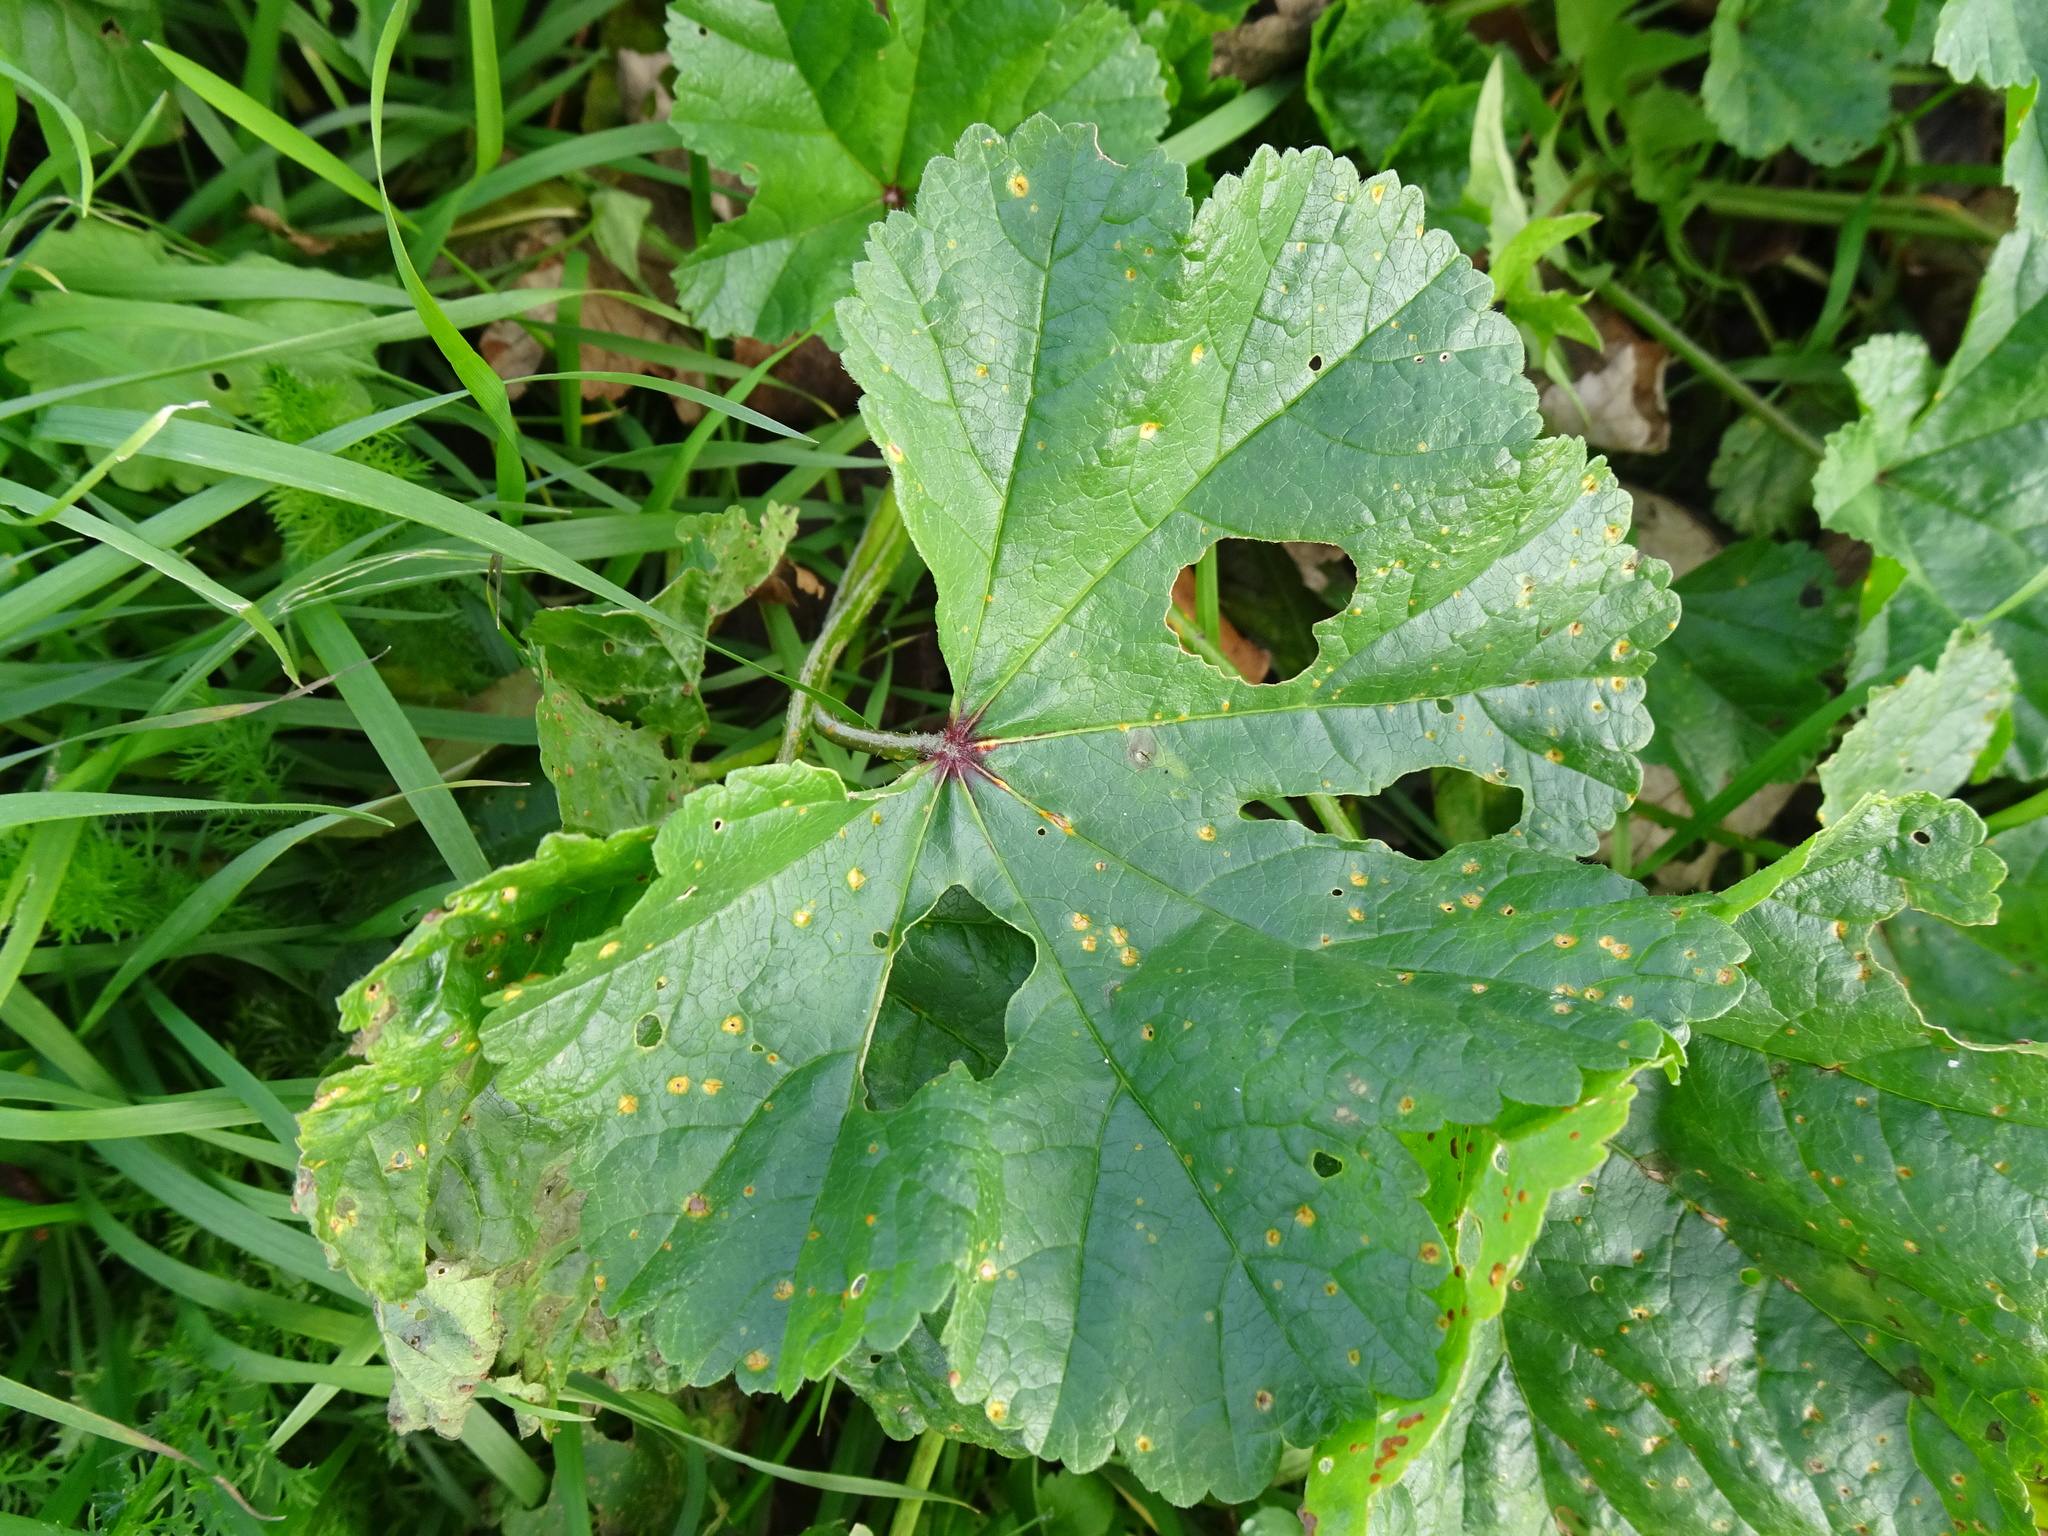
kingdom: Plantae
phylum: Tracheophyta
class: Magnoliopsida
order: Malvales
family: Malvaceae
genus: Malva
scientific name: Malva sylvestris
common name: Common mallow
